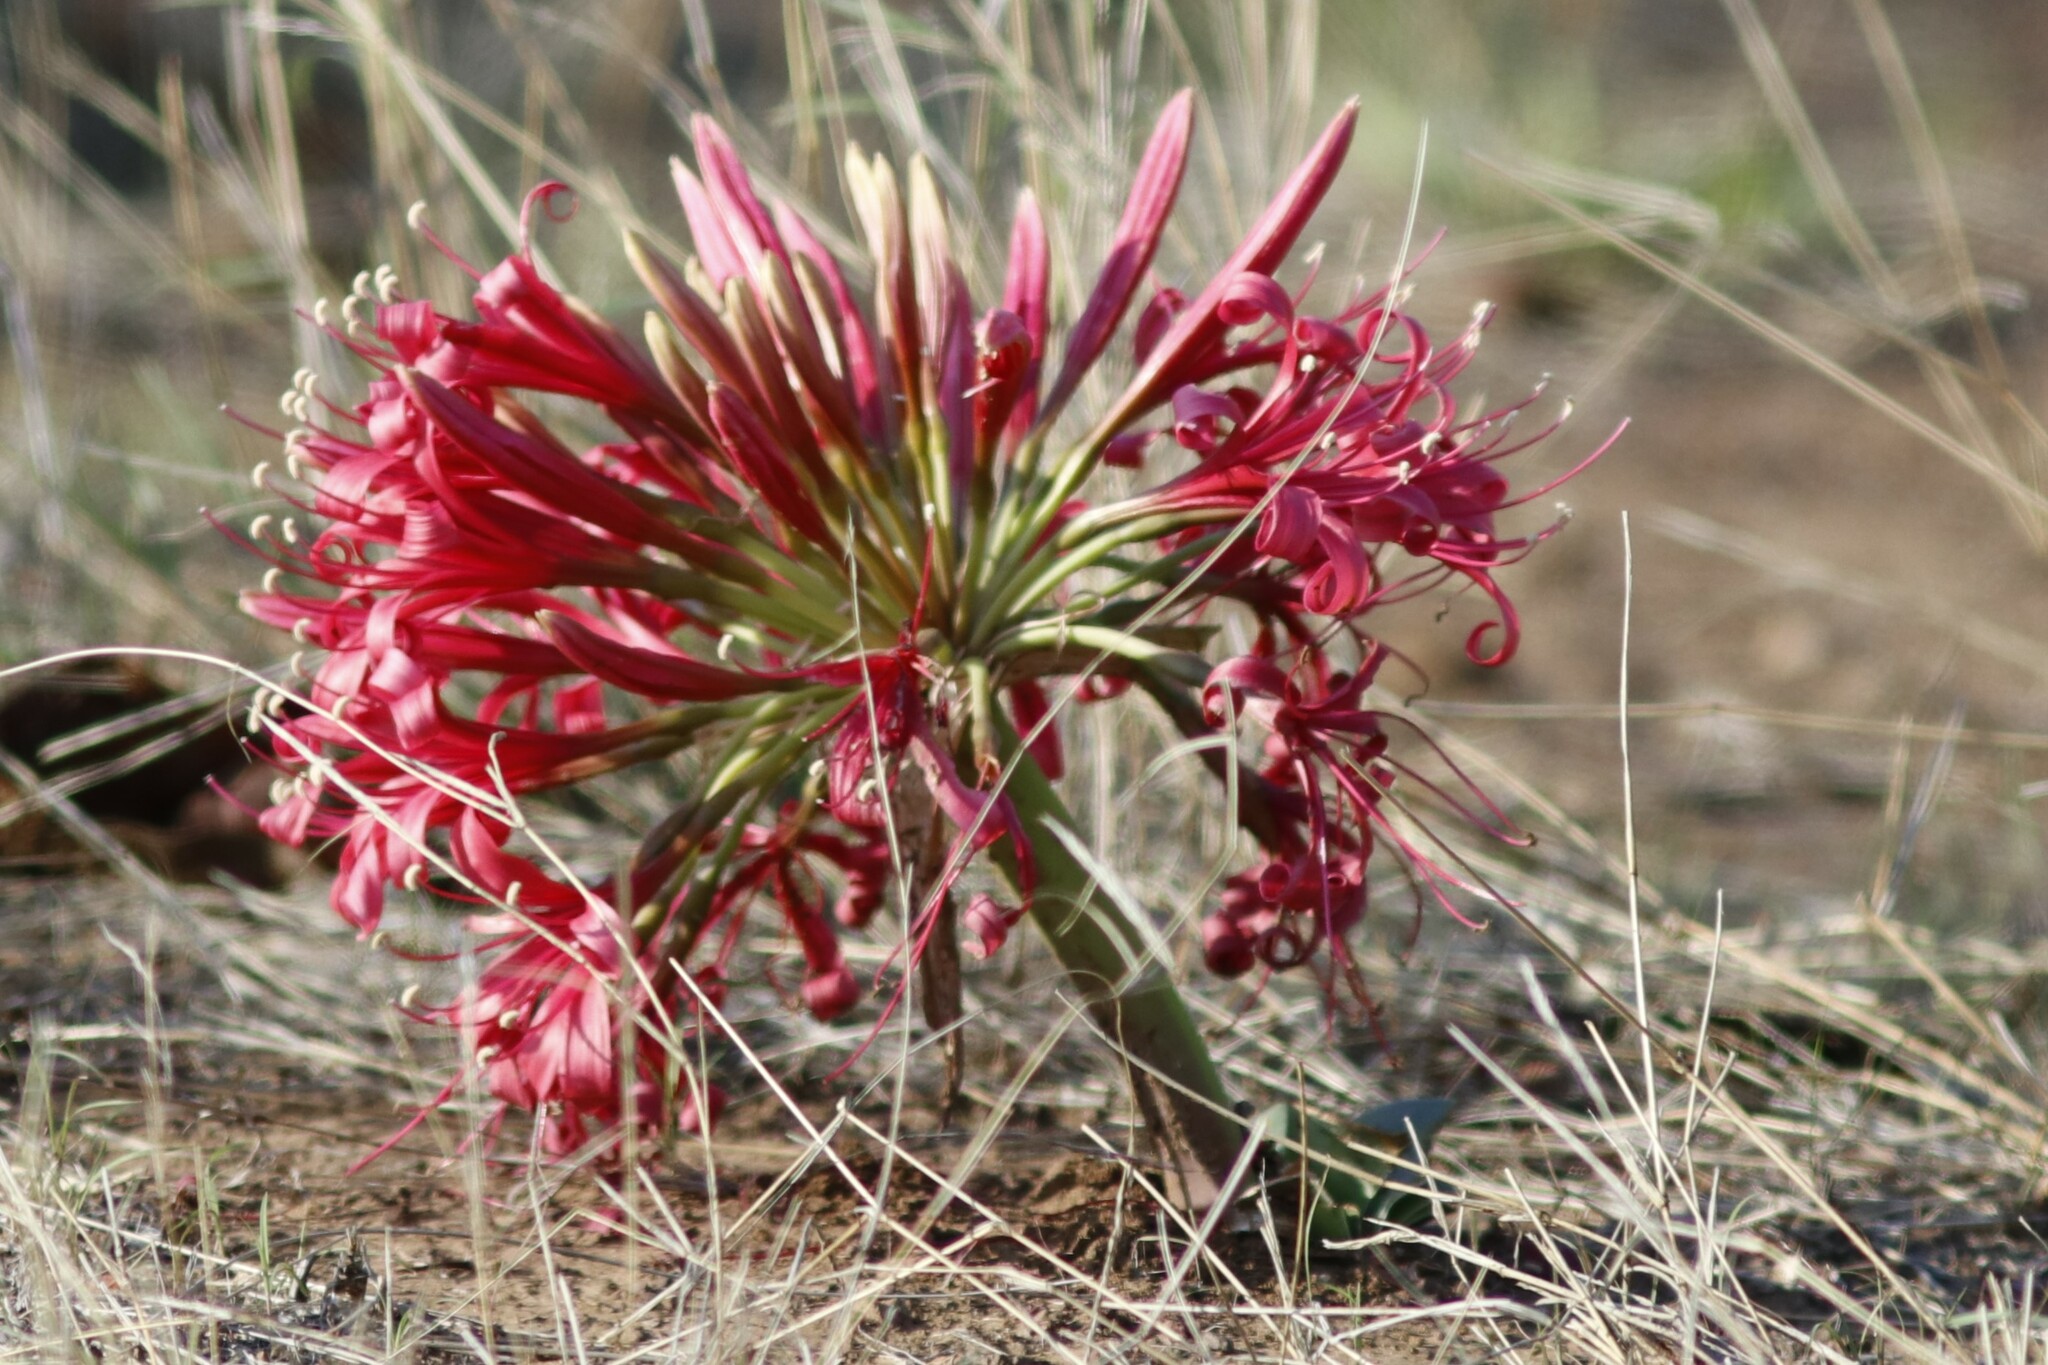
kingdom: Plantae
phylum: Tracheophyta
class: Liliopsida
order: Asparagales
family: Amaryllidaceae
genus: Ammocharis
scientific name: Ammocharis coranica
